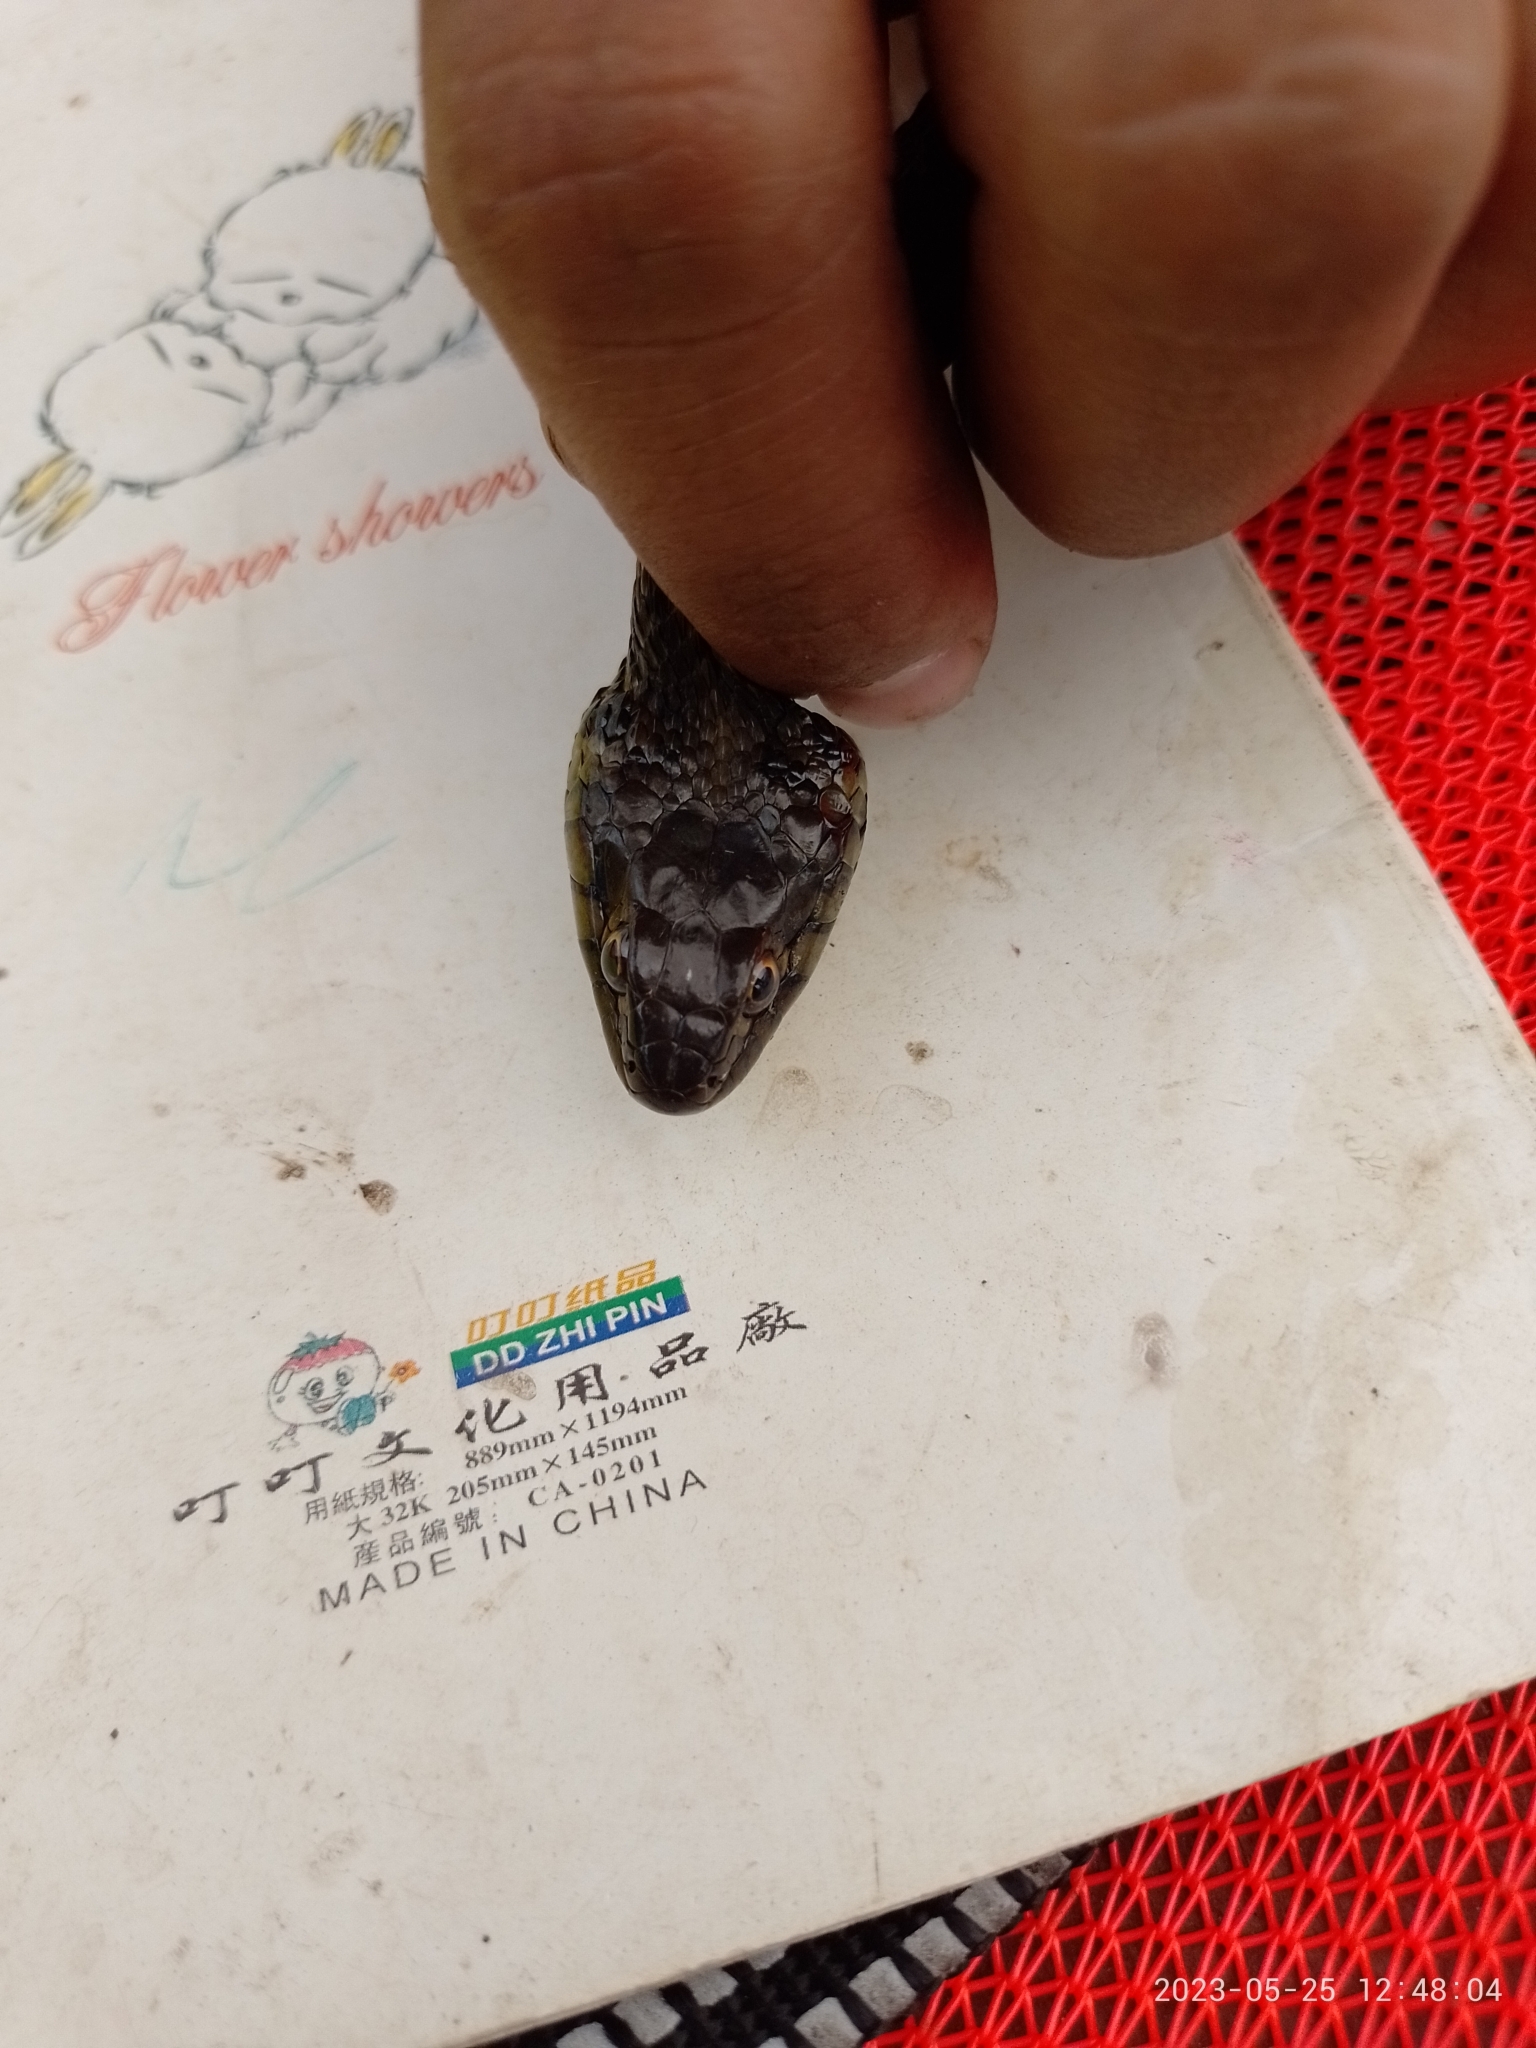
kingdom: Animalia
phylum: Chordata
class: Squamata
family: Colubridae
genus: Thamnophis
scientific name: Thamnophis eques
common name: Mexican garter snake
